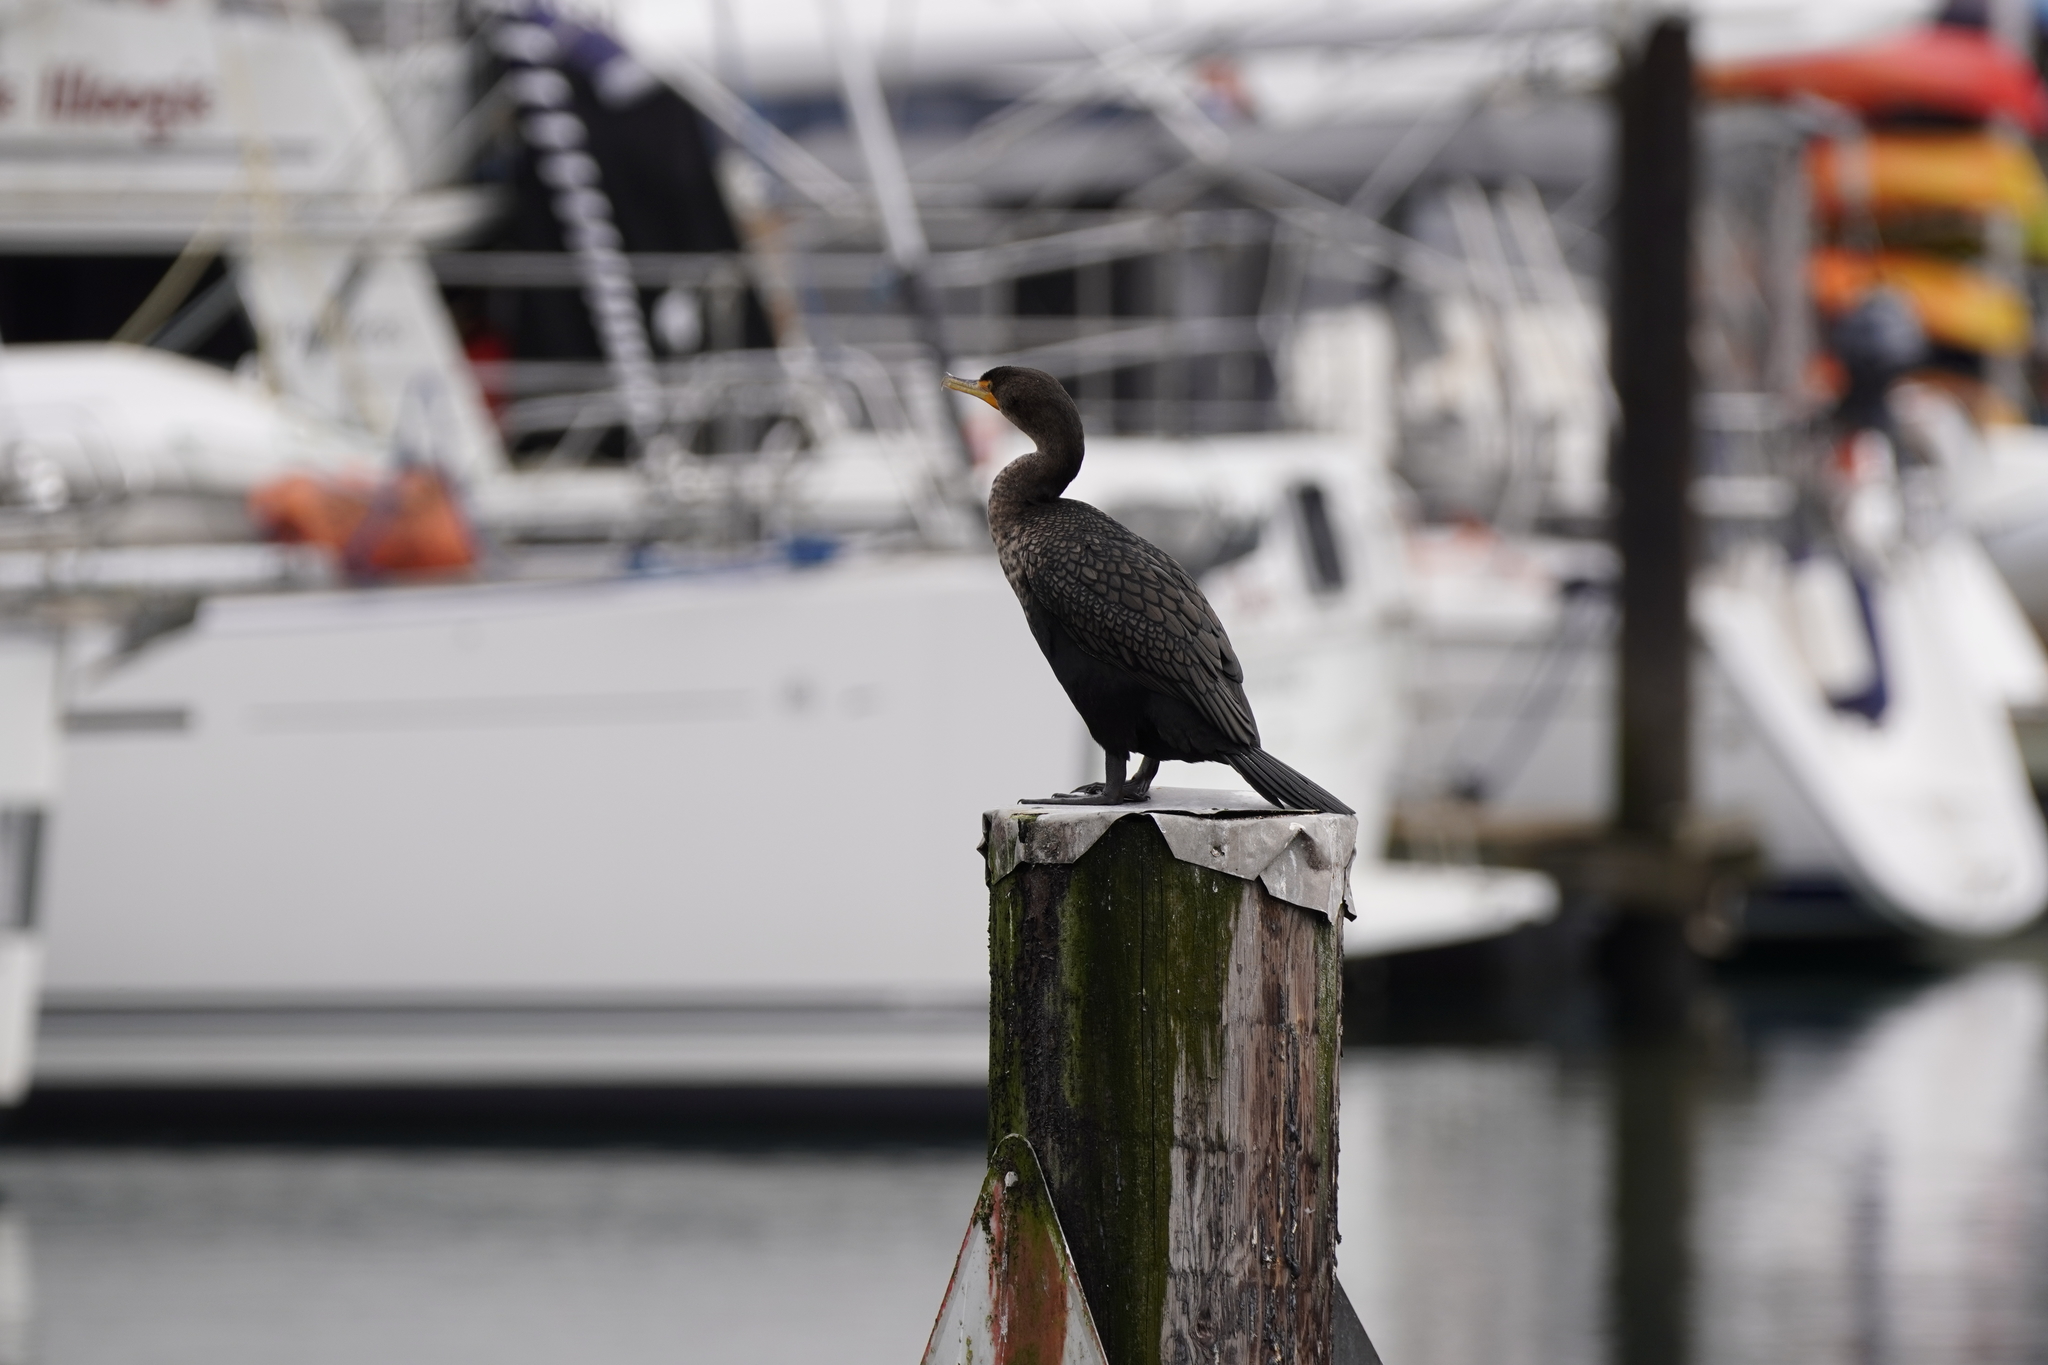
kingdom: Animalia
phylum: Chordata
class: Aves
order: Suliformes
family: Phalacrocoracidae
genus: Phalacrocorax
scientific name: Phalacrocorax auritus
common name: Double-crested cormorant
